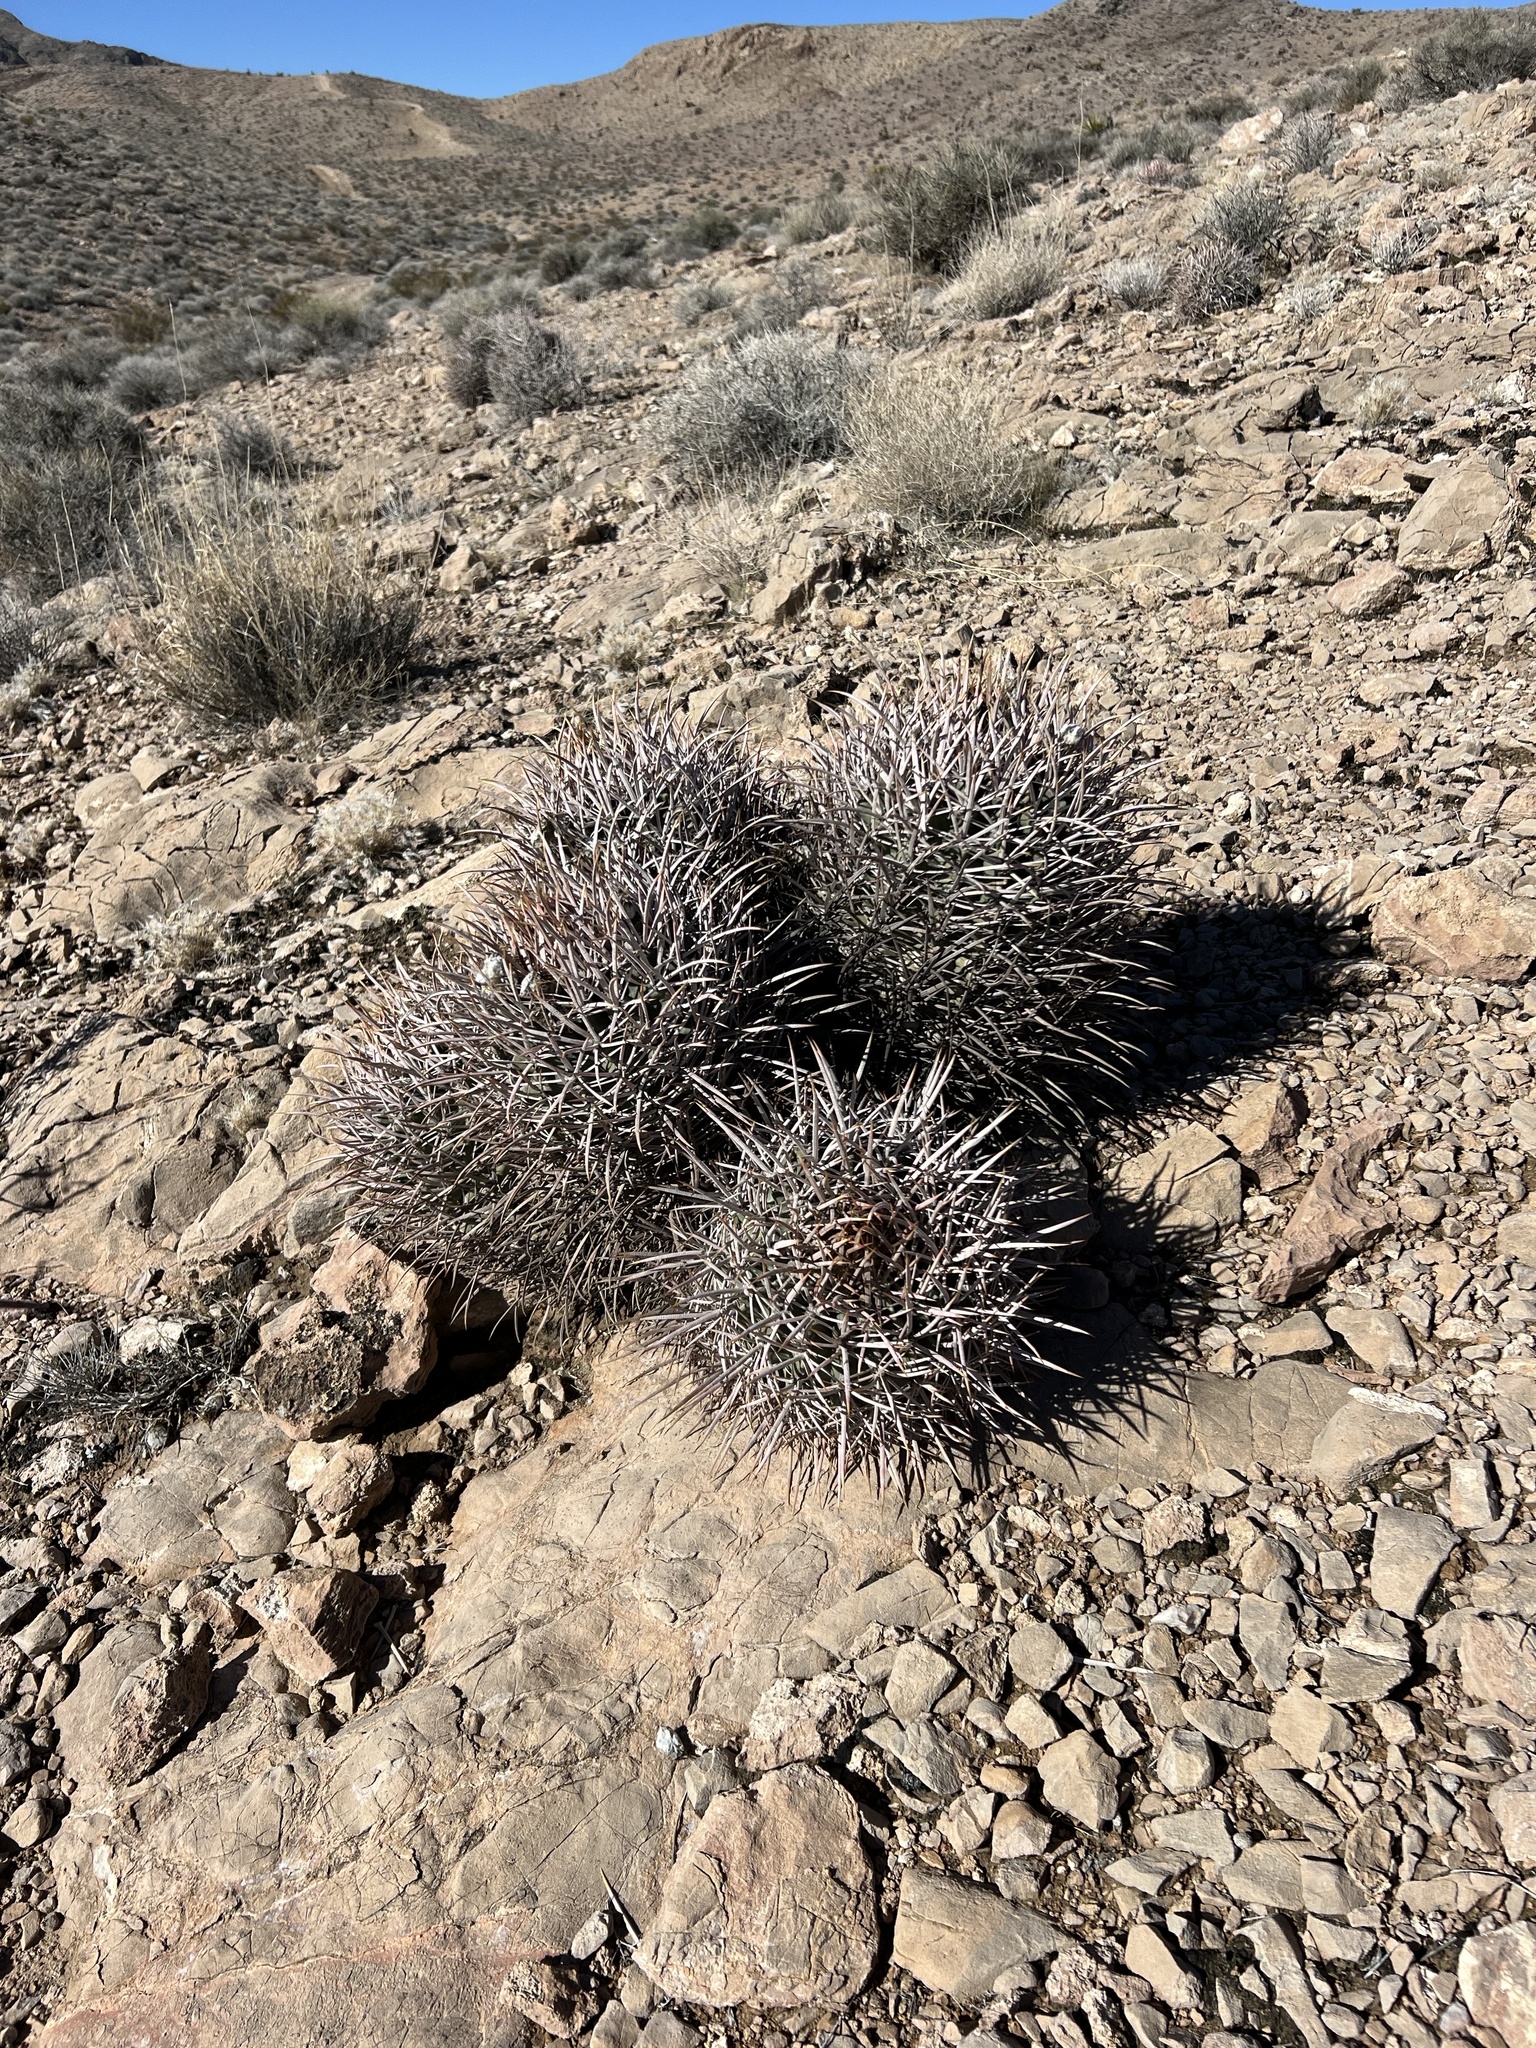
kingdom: Plantae
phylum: Tracheophyta
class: Magnoliopsida
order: Caryophyllales
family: Cactaceae
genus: Echinocactus
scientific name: Echinocactus polycephalus
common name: Cottontop cactus
